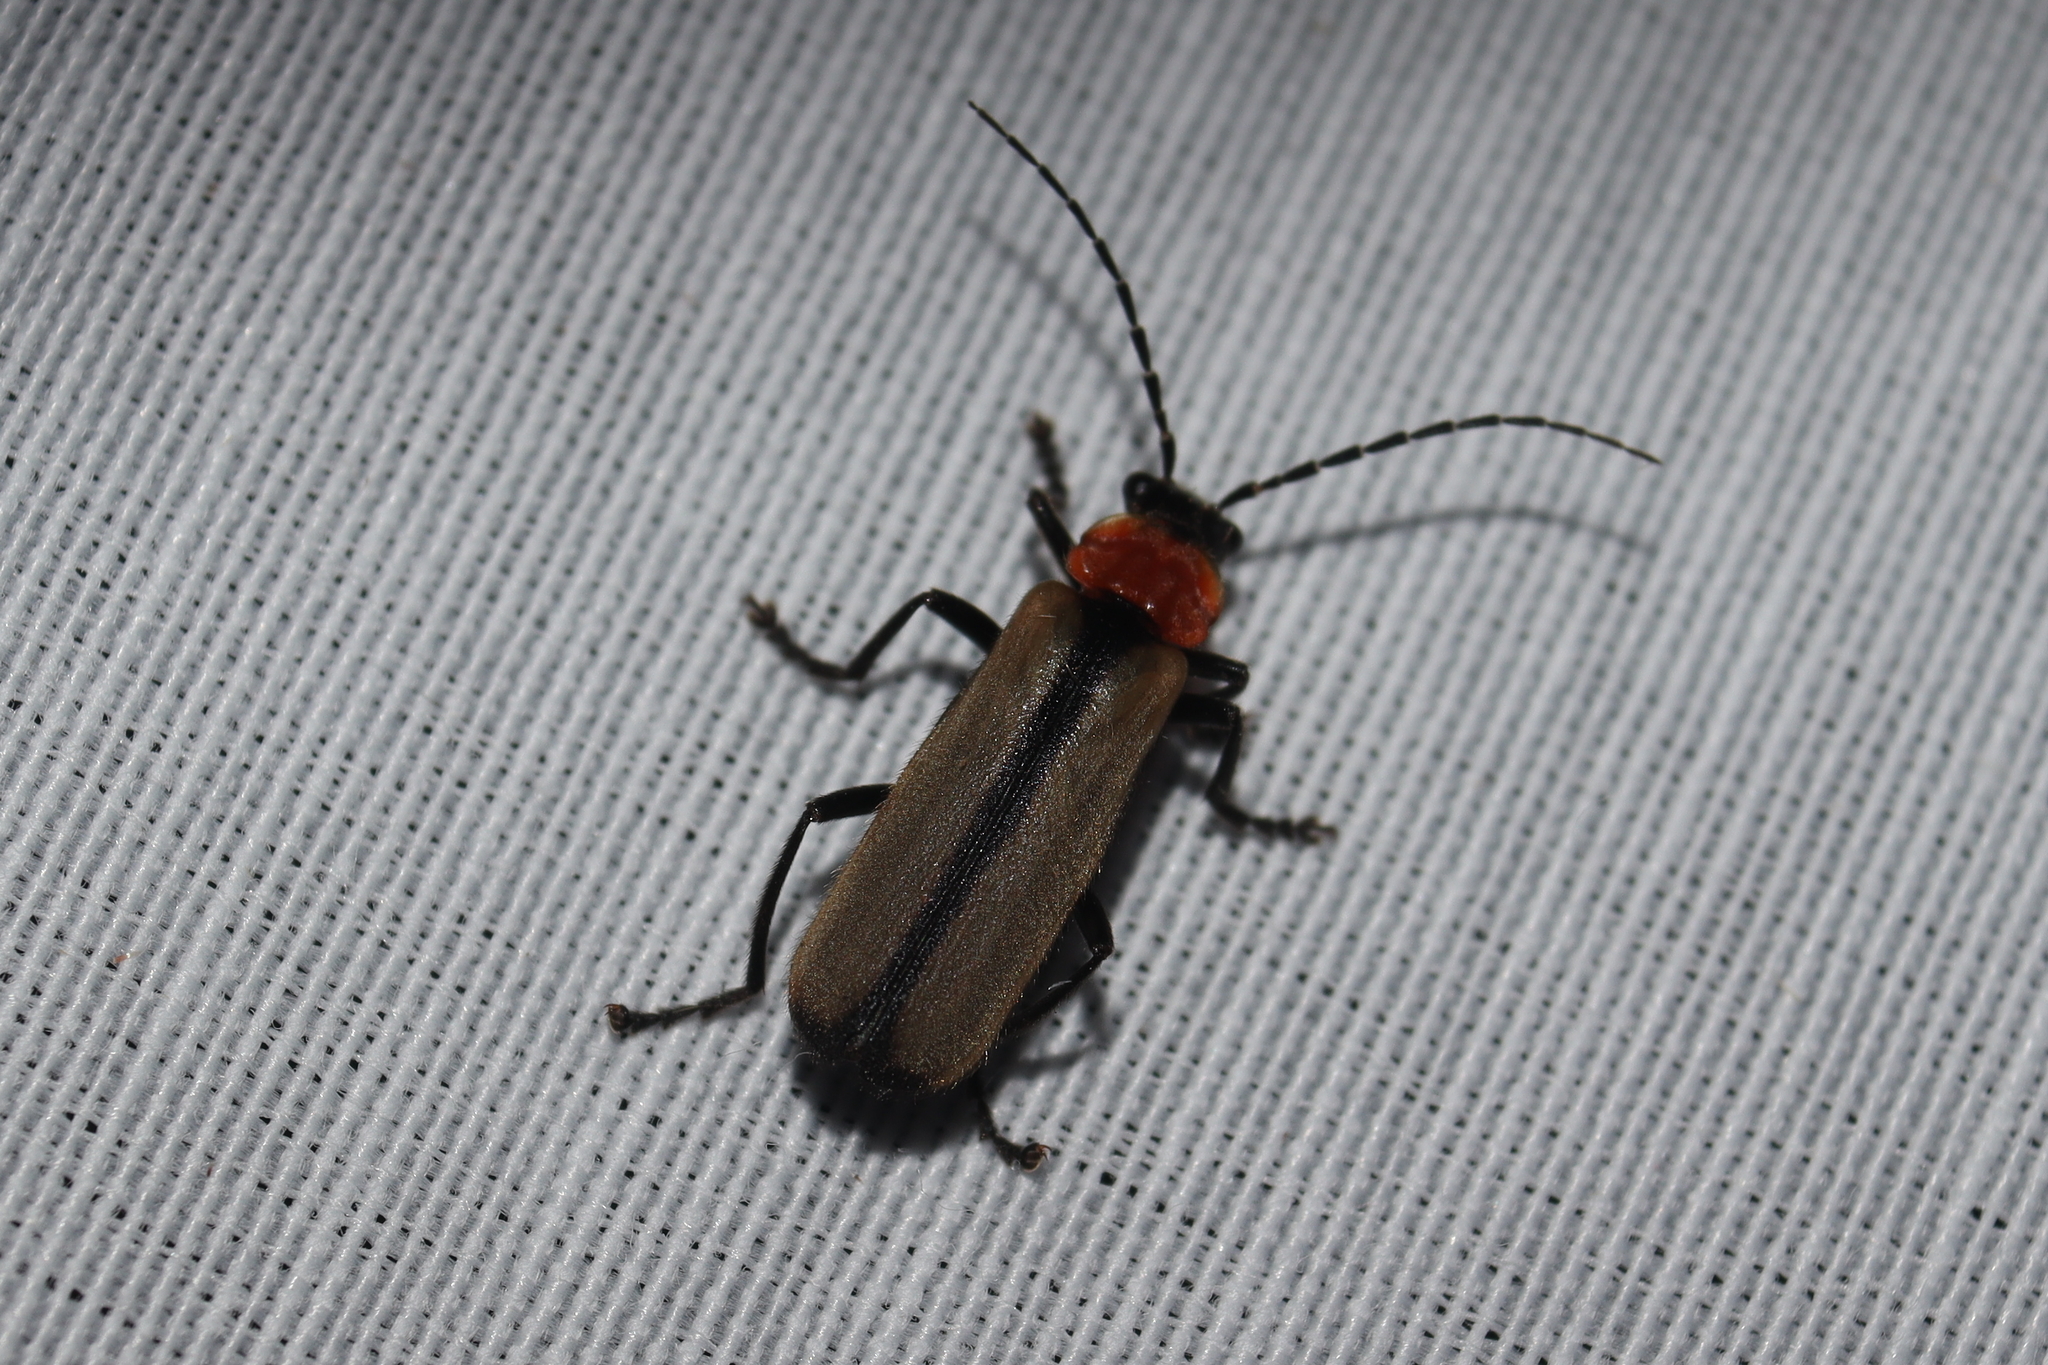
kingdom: Animalia
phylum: Arthropoda
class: Insecta
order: Coleoptera
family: Cantharidae
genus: Discodon
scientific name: Discodon
